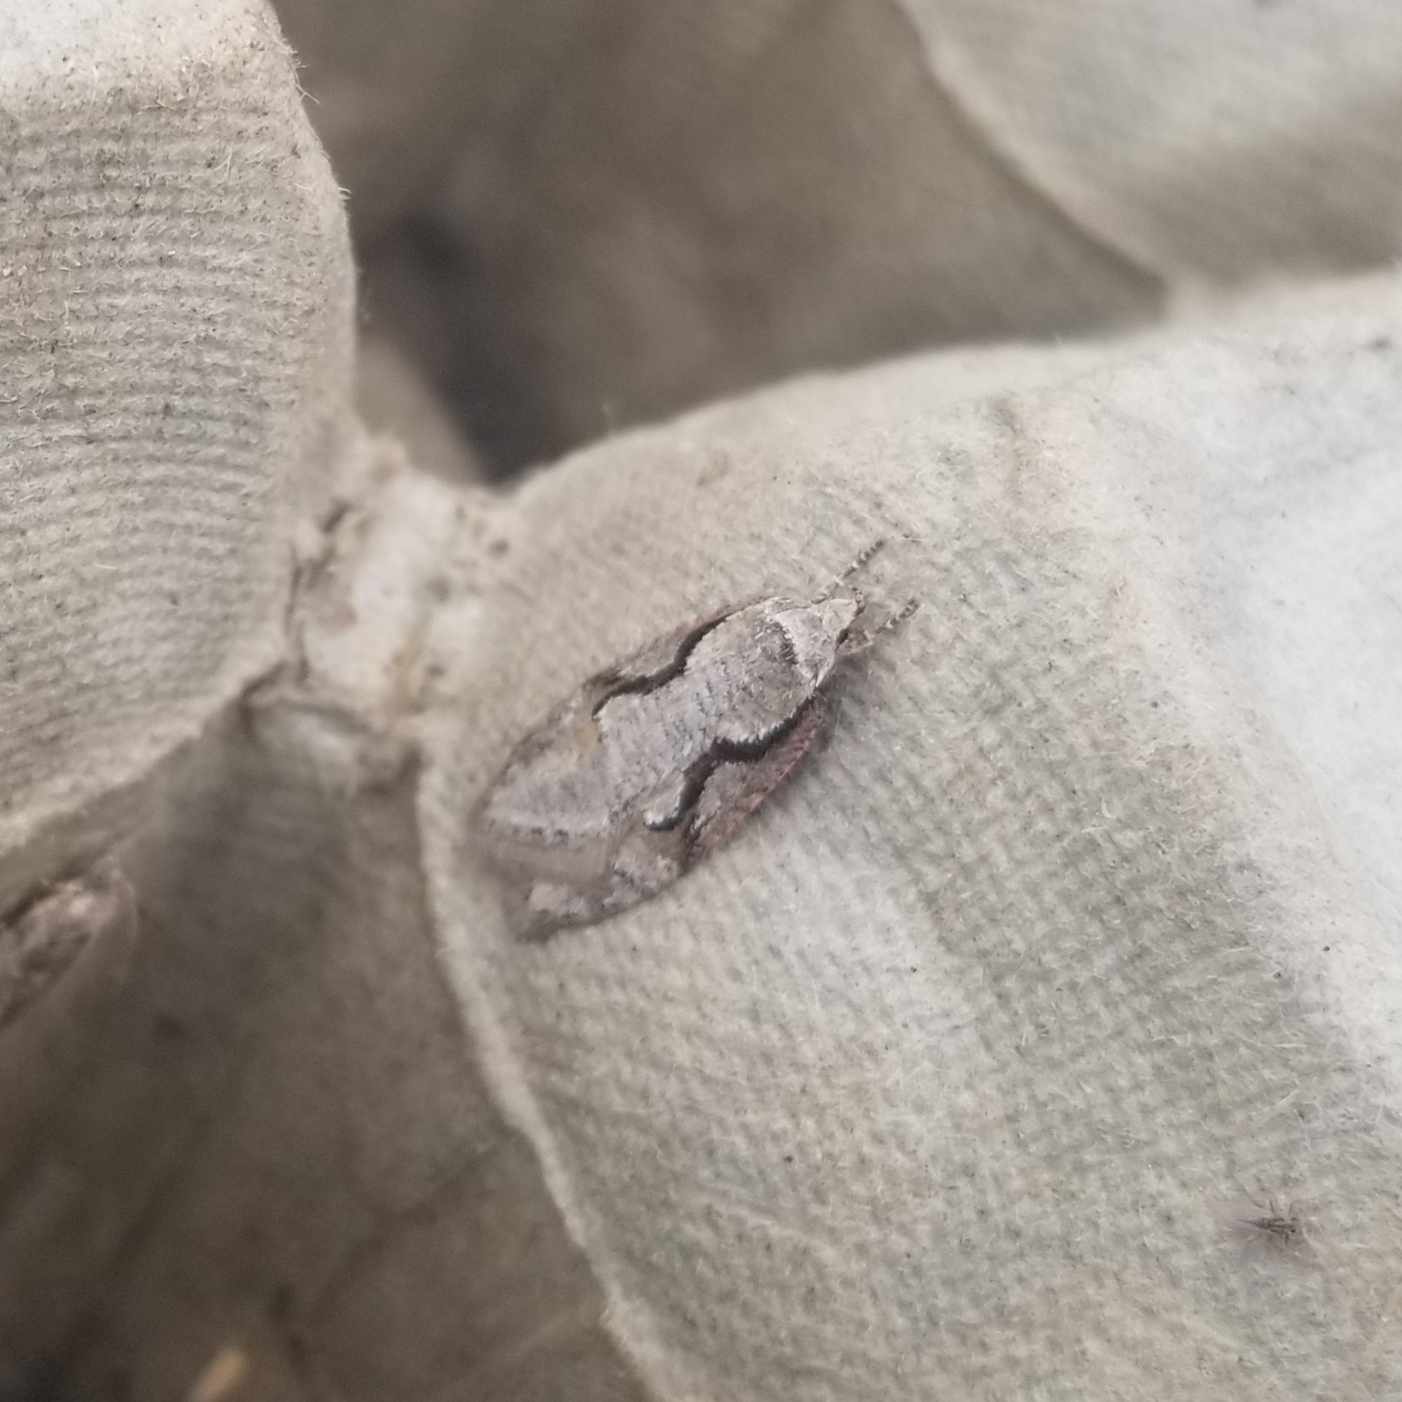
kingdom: Animalia
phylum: Arthropoda
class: Insecta
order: Lepidoptera
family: Depressariidae
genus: Semioscopis
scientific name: Semioscopis packardella
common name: Packard's concealer moth
